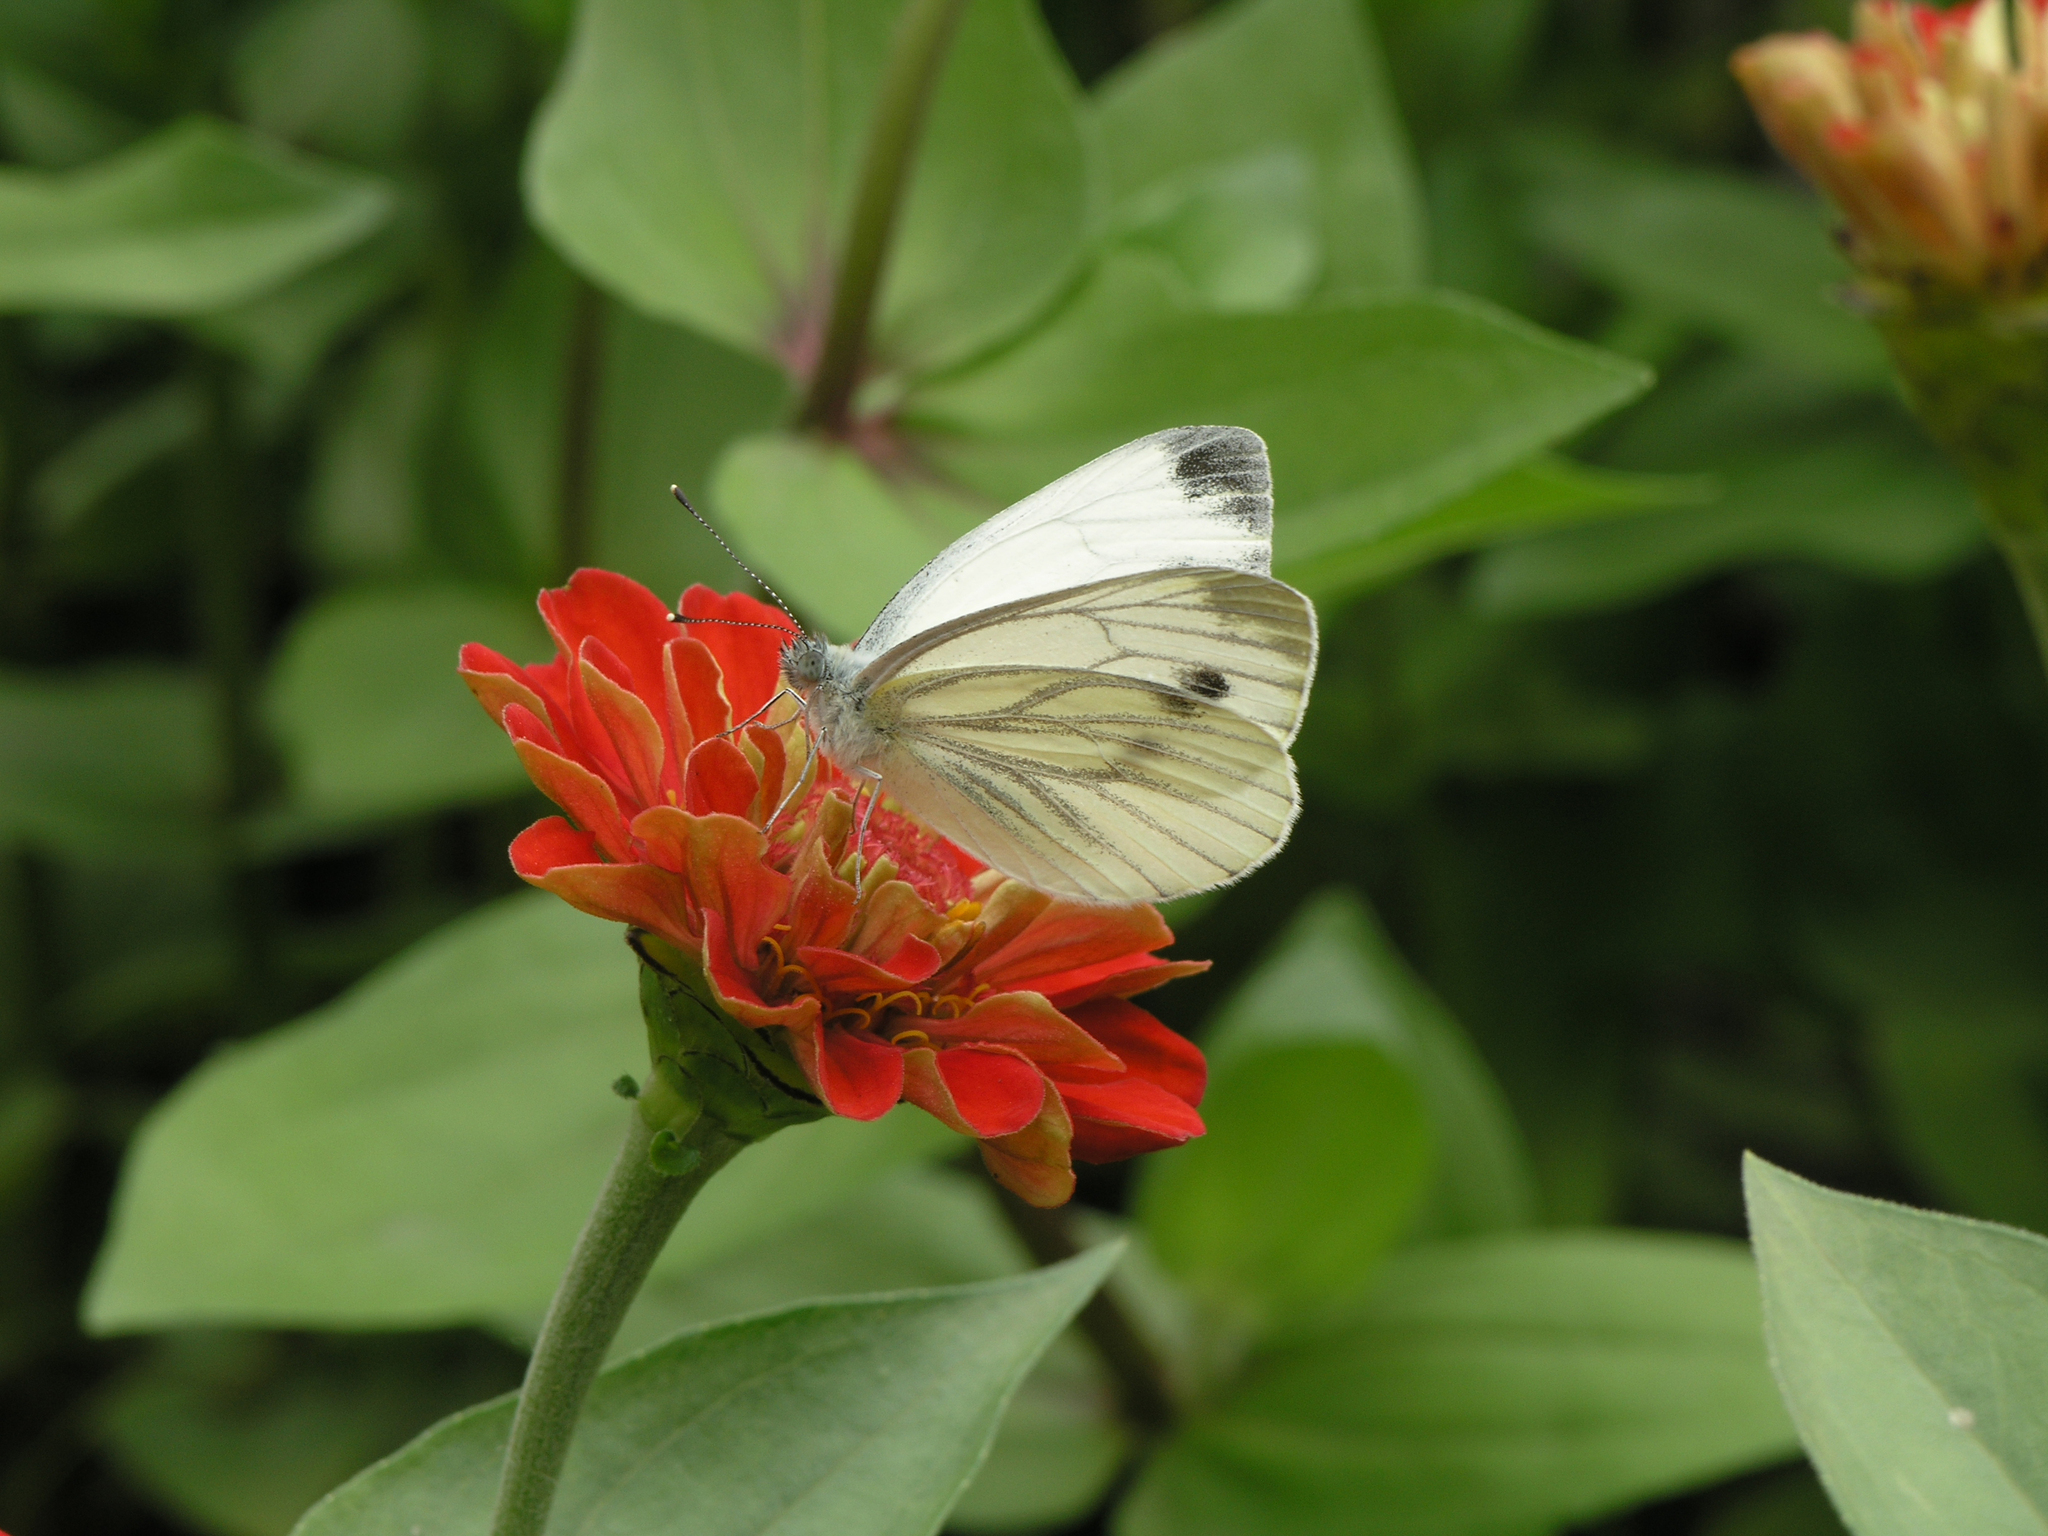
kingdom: Animalia
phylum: Arthropoda
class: Insecta
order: Lepidoptera
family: Pieridae
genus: Pieris
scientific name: Pieris napi
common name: Green-veined white
